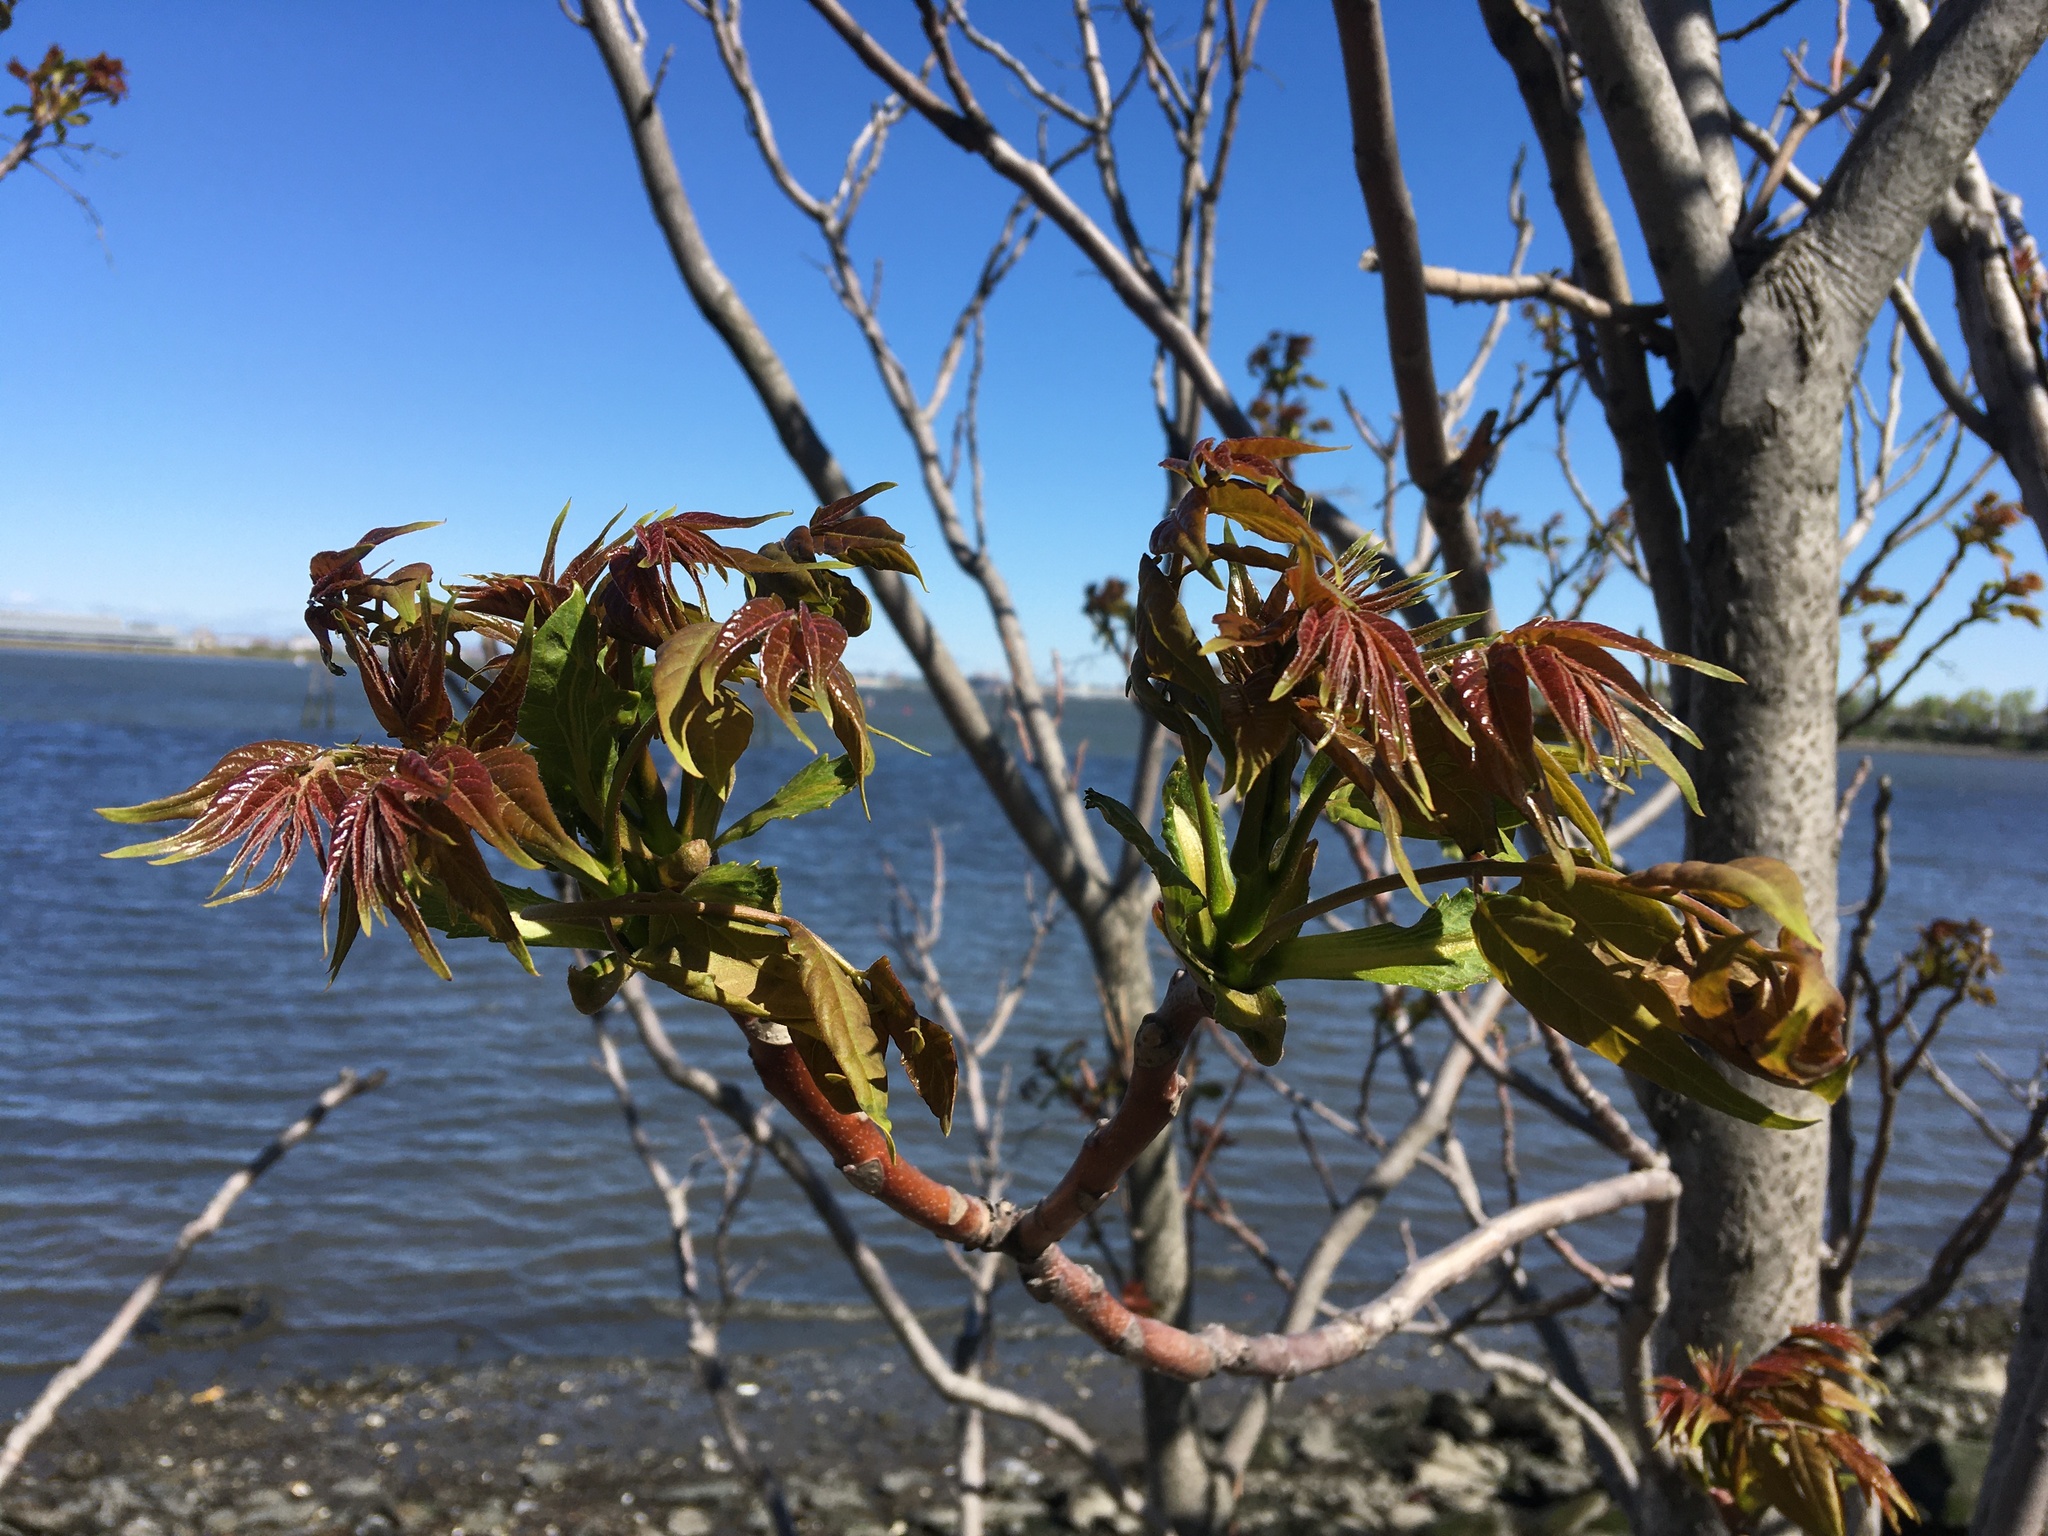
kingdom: Plantae
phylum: Tracheophyta
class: Magnoliopsida
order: Sapindales
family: Simaroubaceae
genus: Ailanthus
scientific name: Ailanthus altissima
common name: Tree-of-heaven
